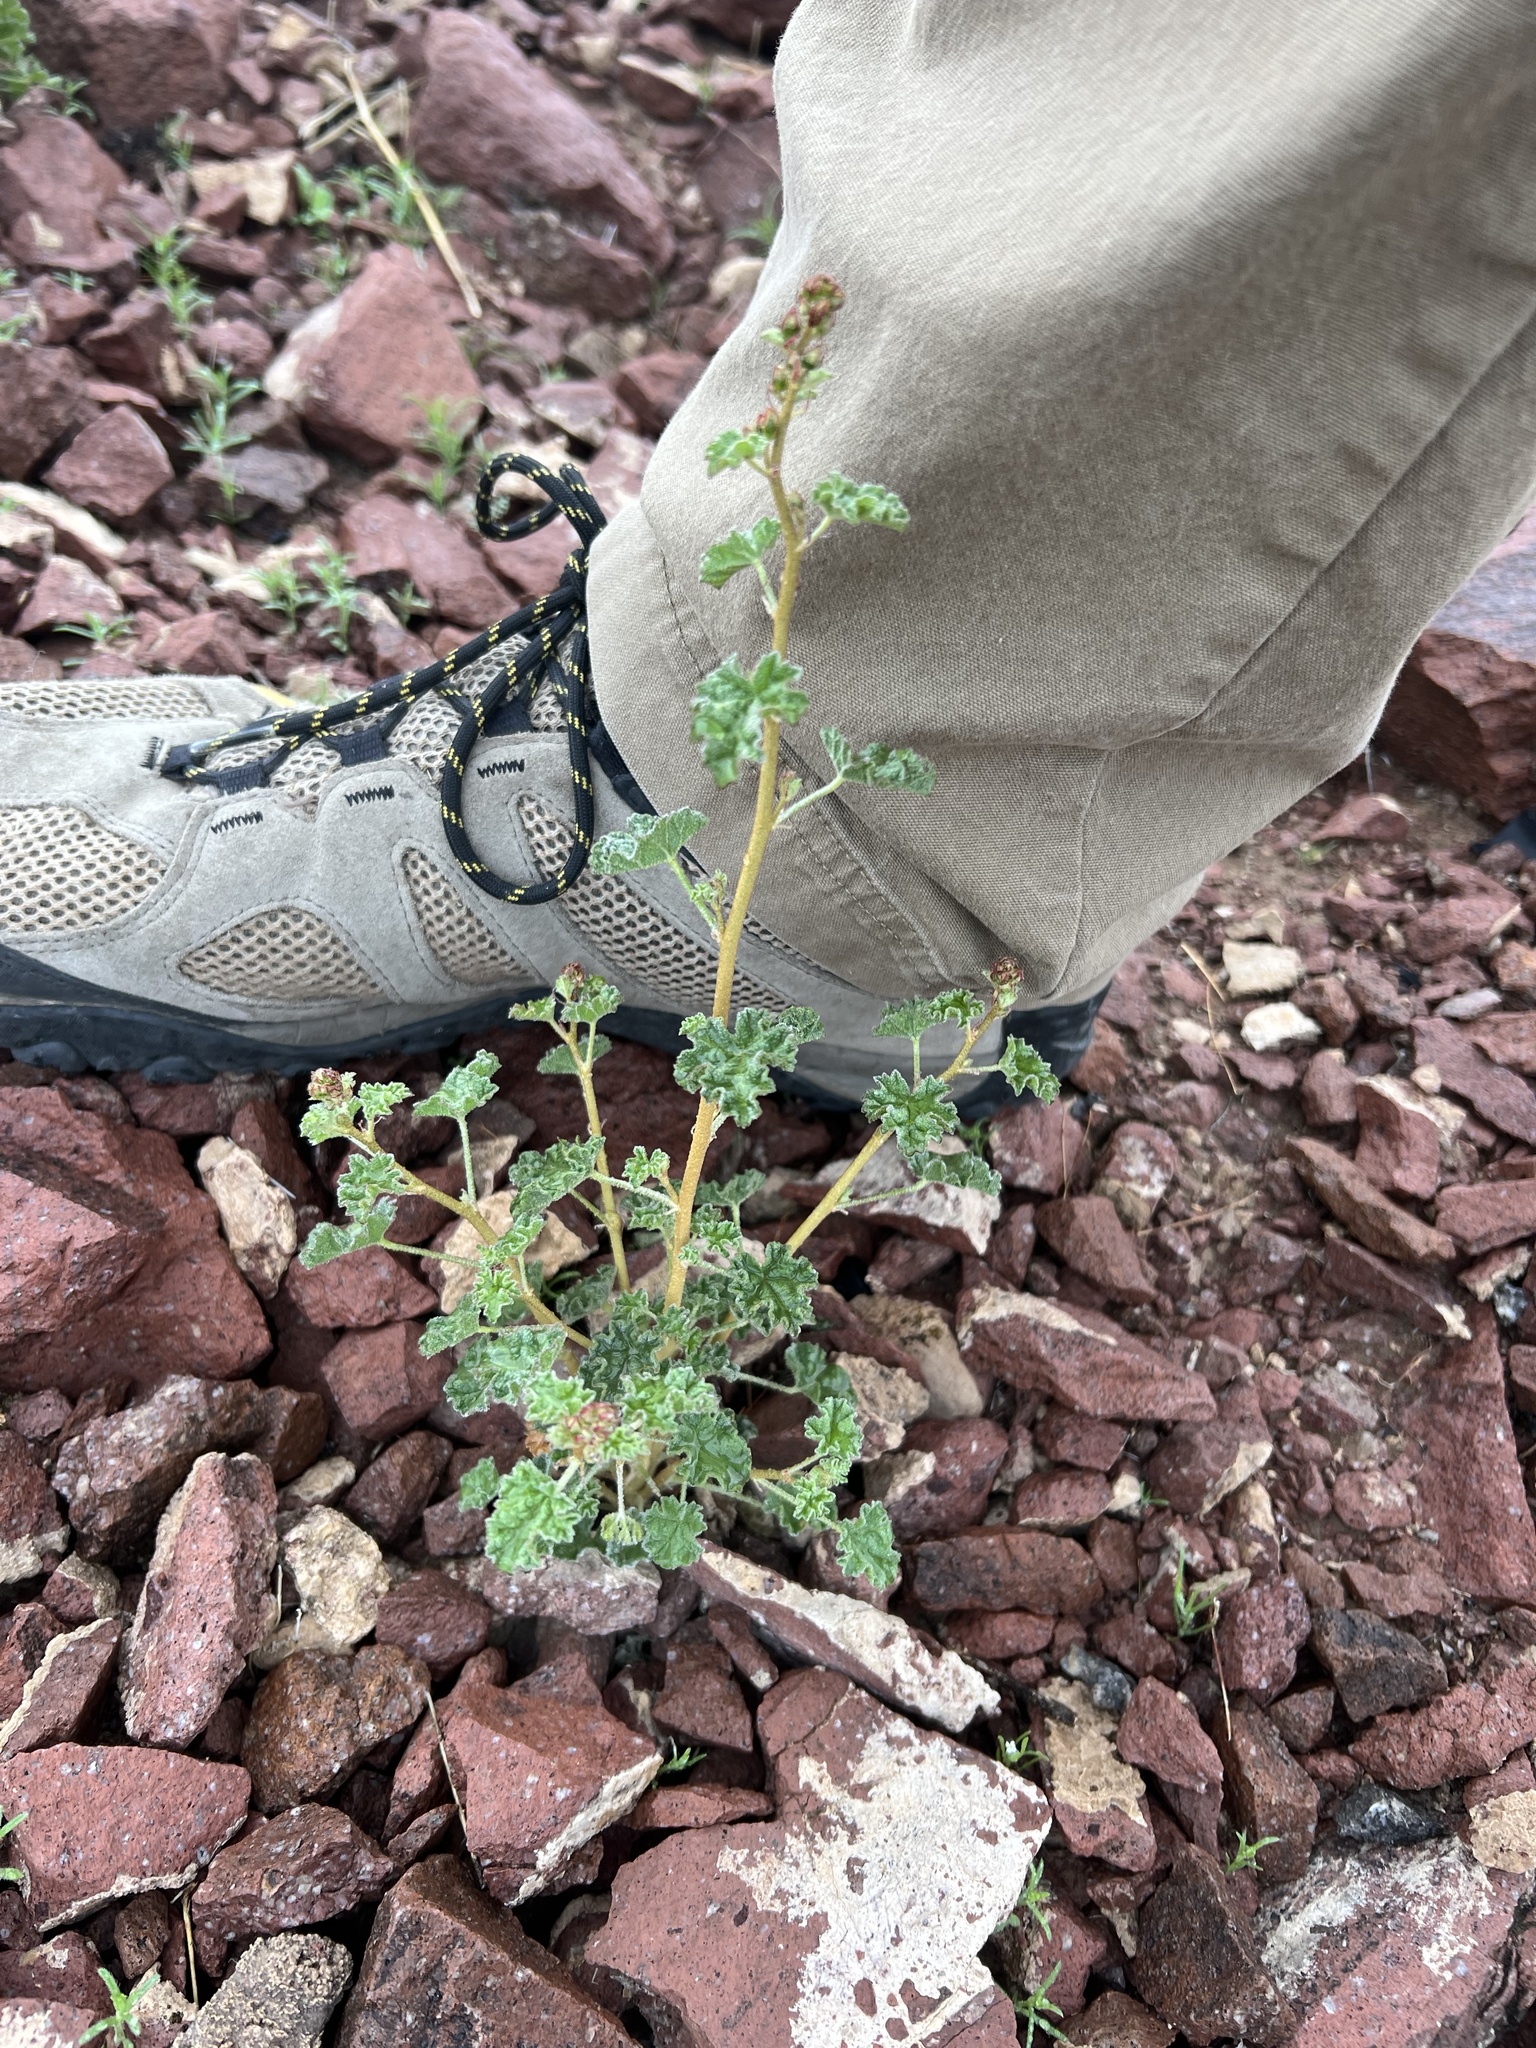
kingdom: Plantae
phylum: Tracheophyta
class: Magnoliopsida
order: Malvales
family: Malvaceae
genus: Sphaeralcea
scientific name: Sphaeralcea ambigua
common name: Apricot globe-mallow
